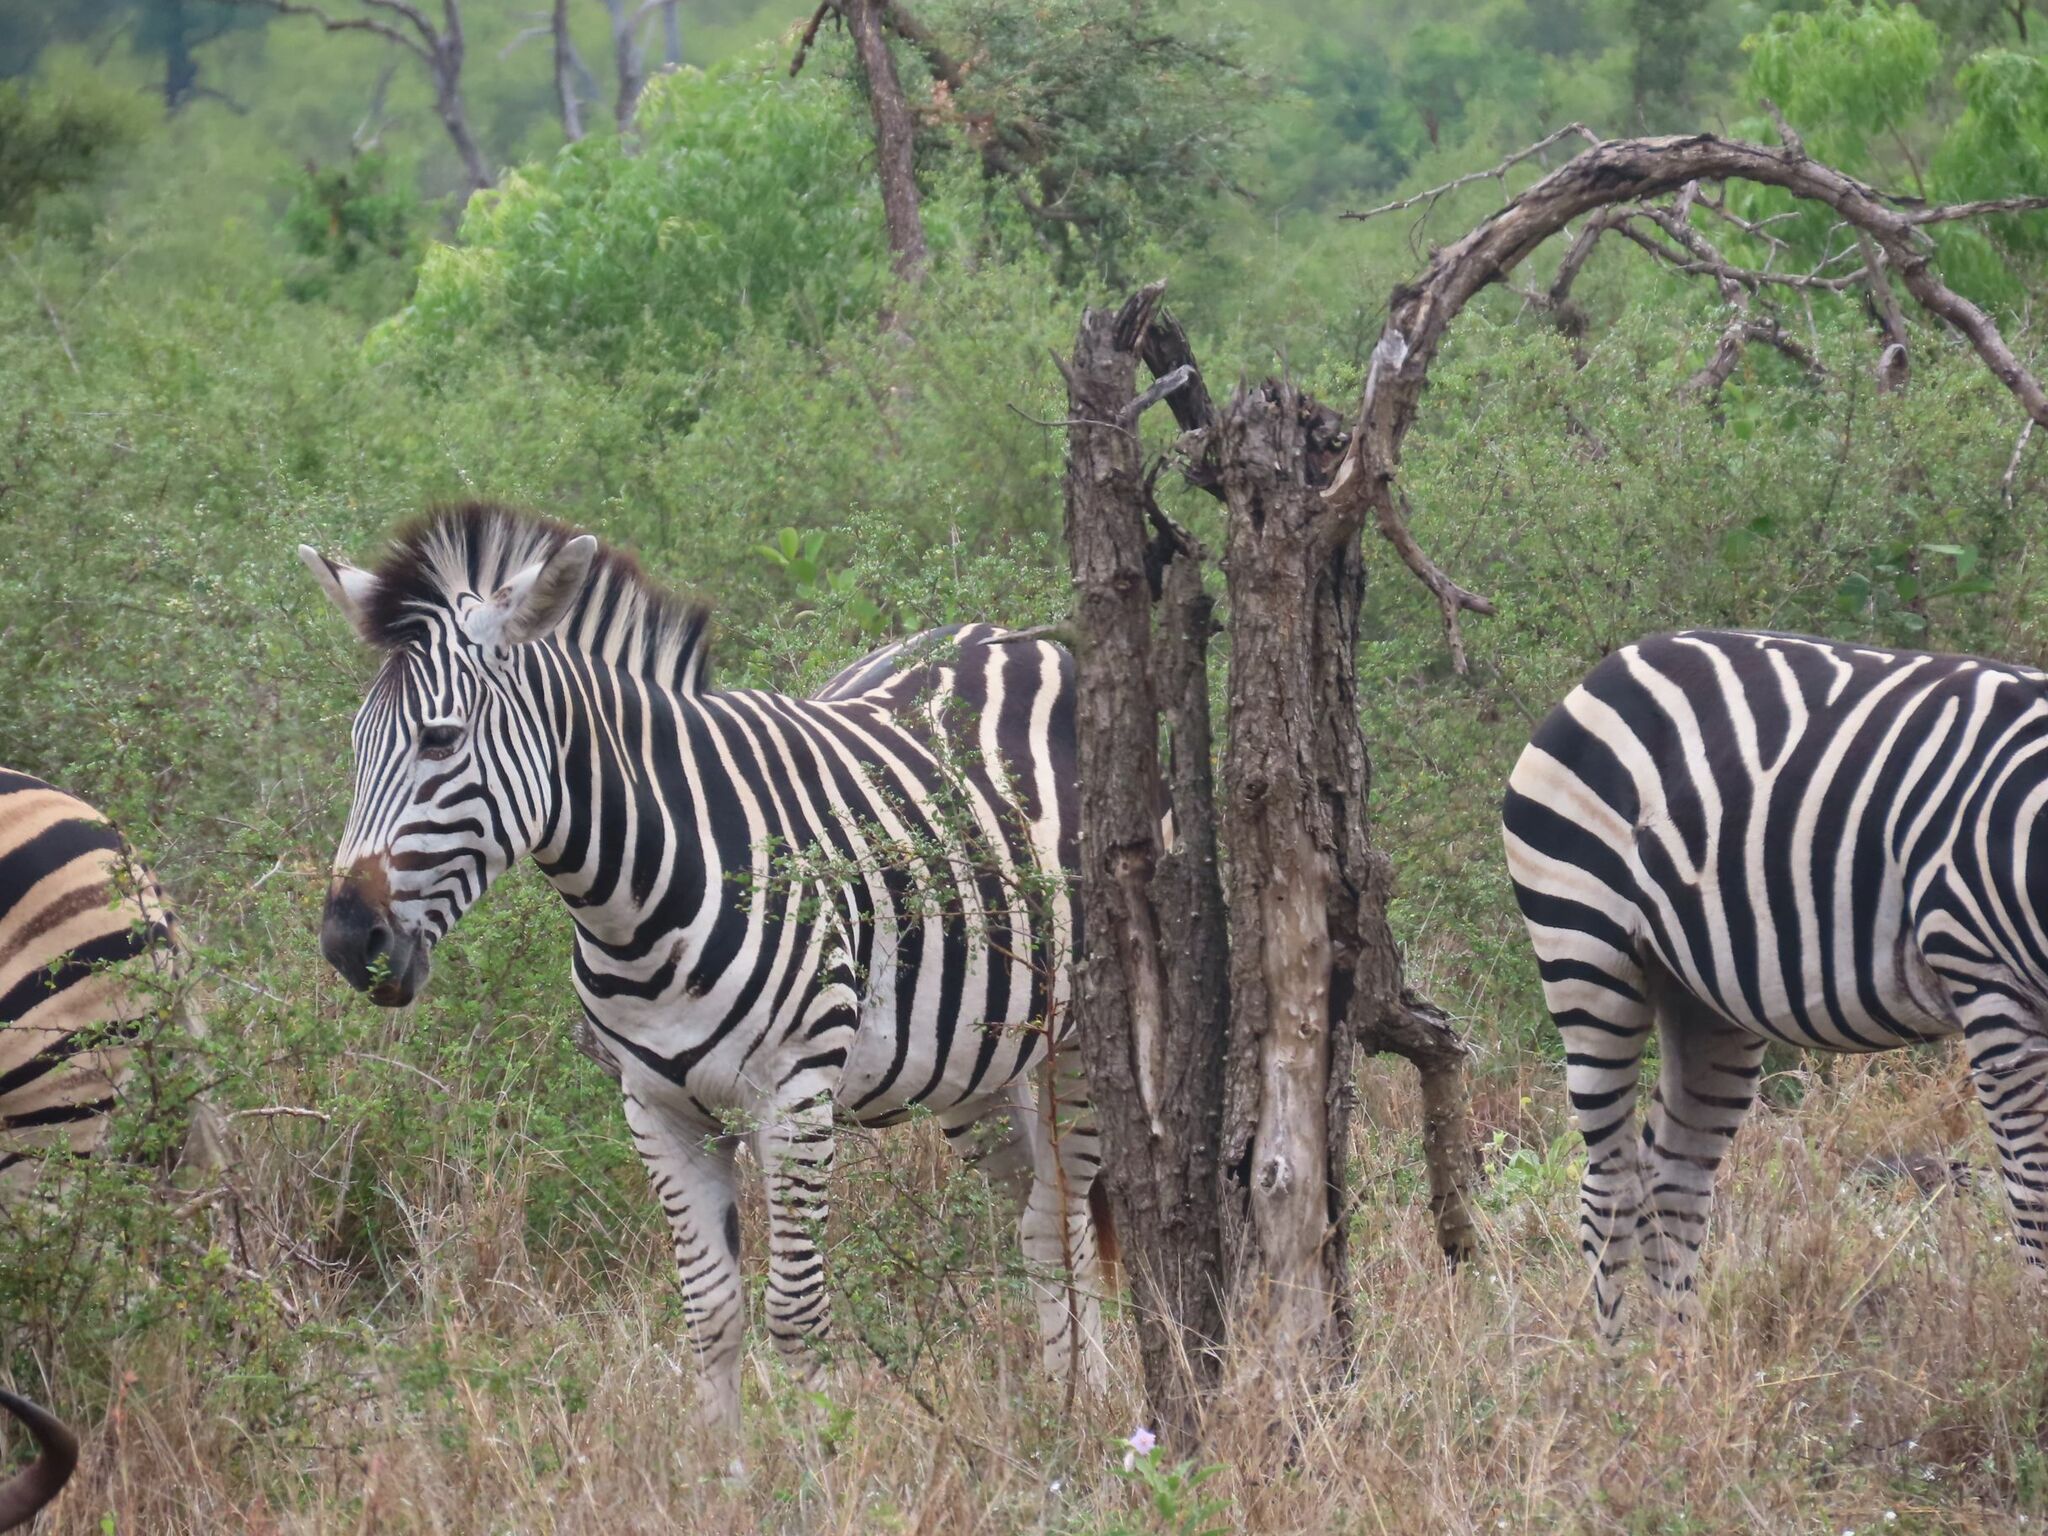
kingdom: Animalia
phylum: Chordata
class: Mammalia
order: Perissodactyla
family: Equidae
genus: Equus
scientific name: Equus quagga
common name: Plains zebra
